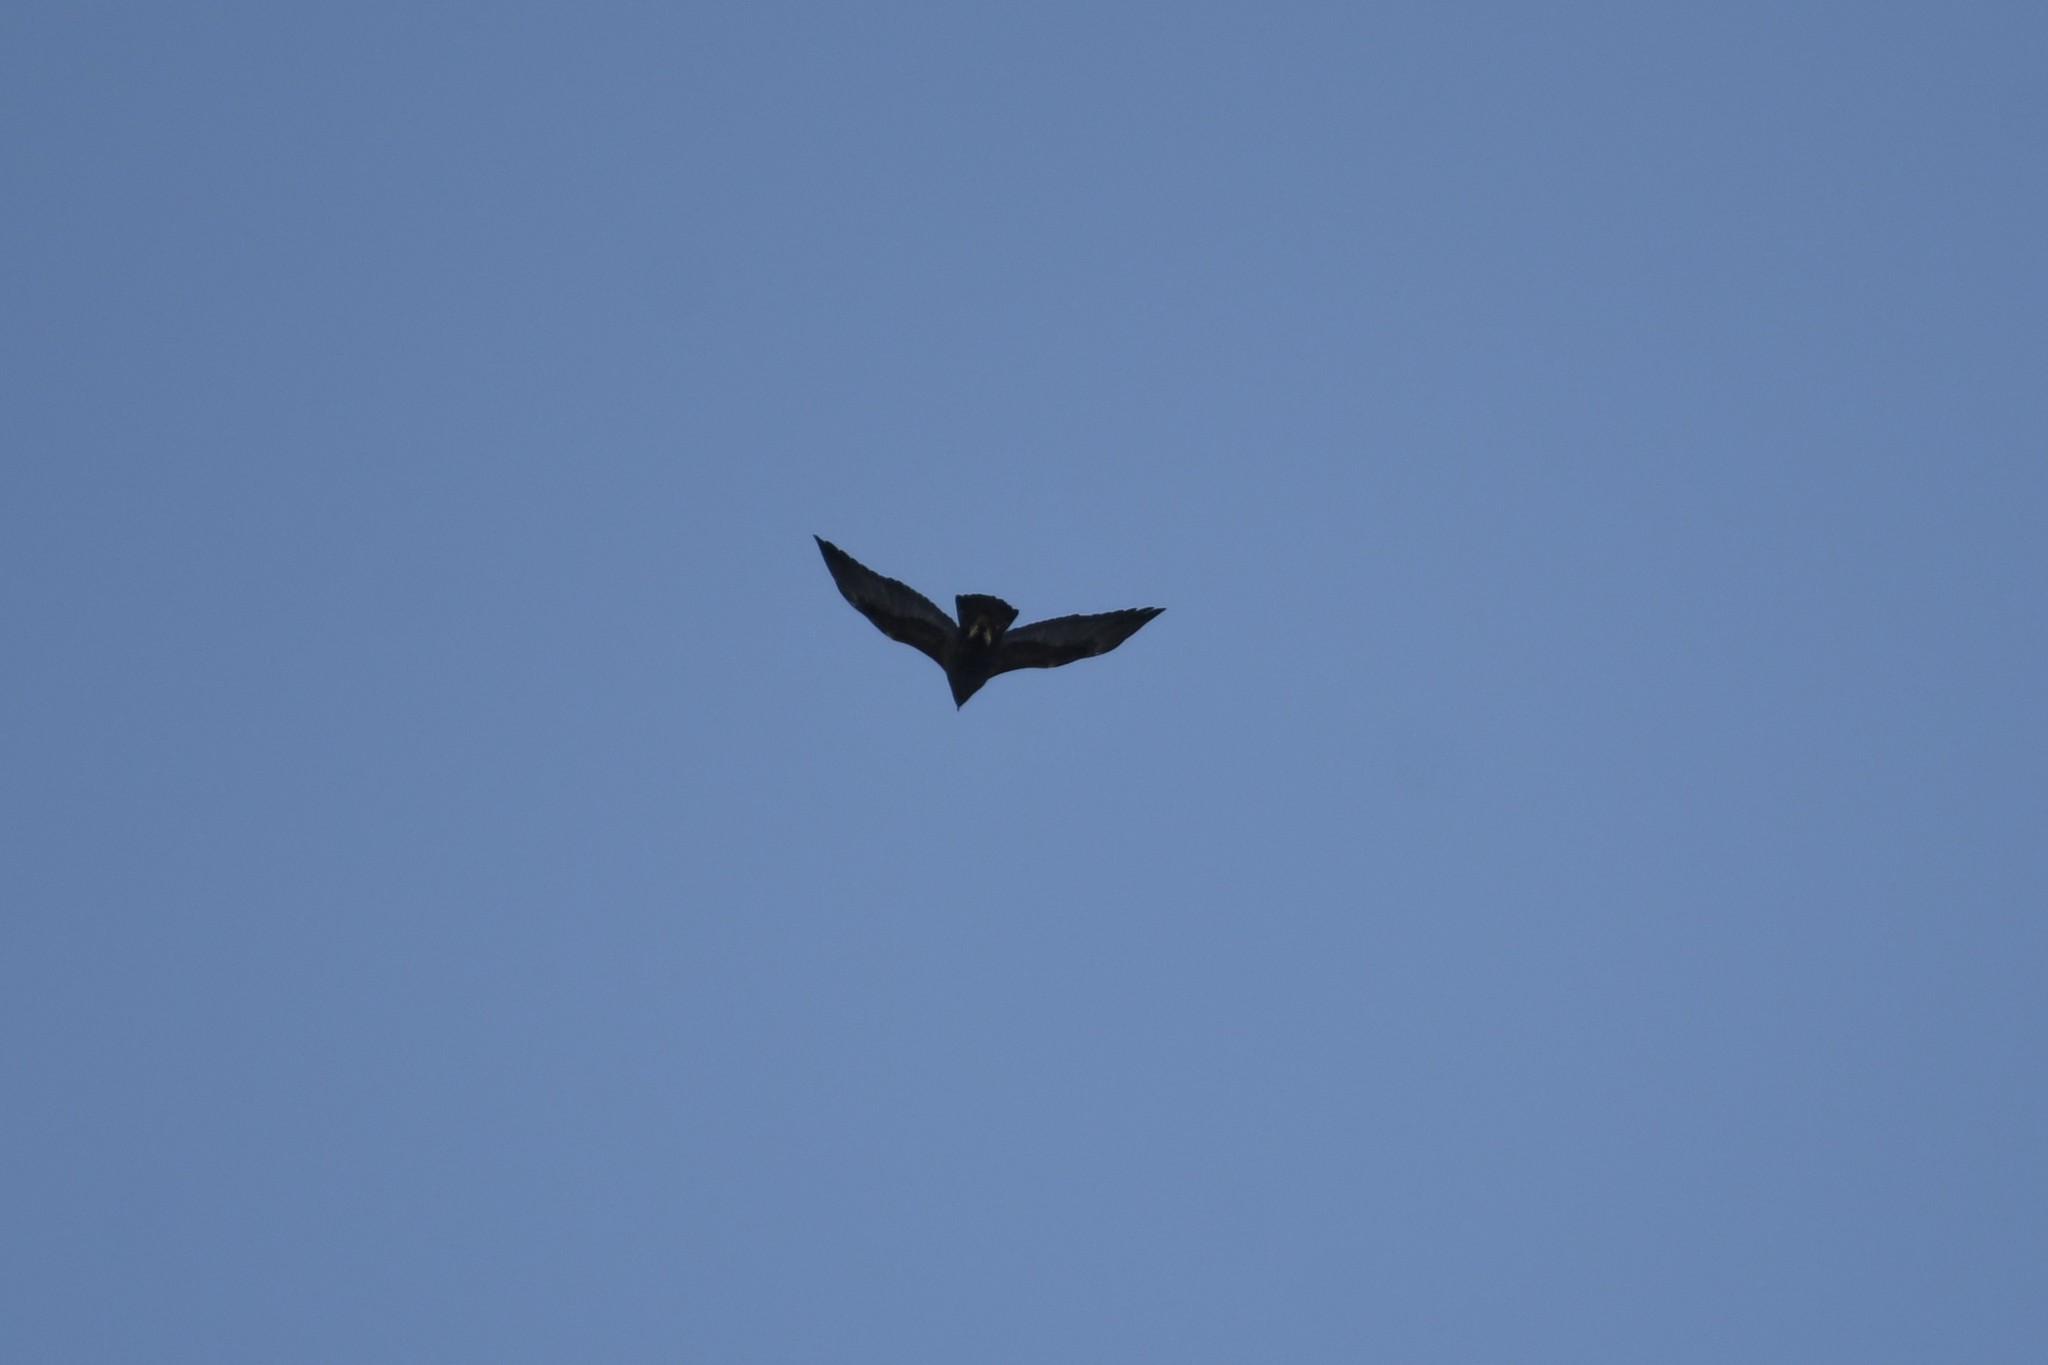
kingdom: Animalia
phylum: Chordata
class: Aves
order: Accipitriformes
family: Accipitridae
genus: Buteo
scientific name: Buteo lagopus
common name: Rough-legged buzzard
